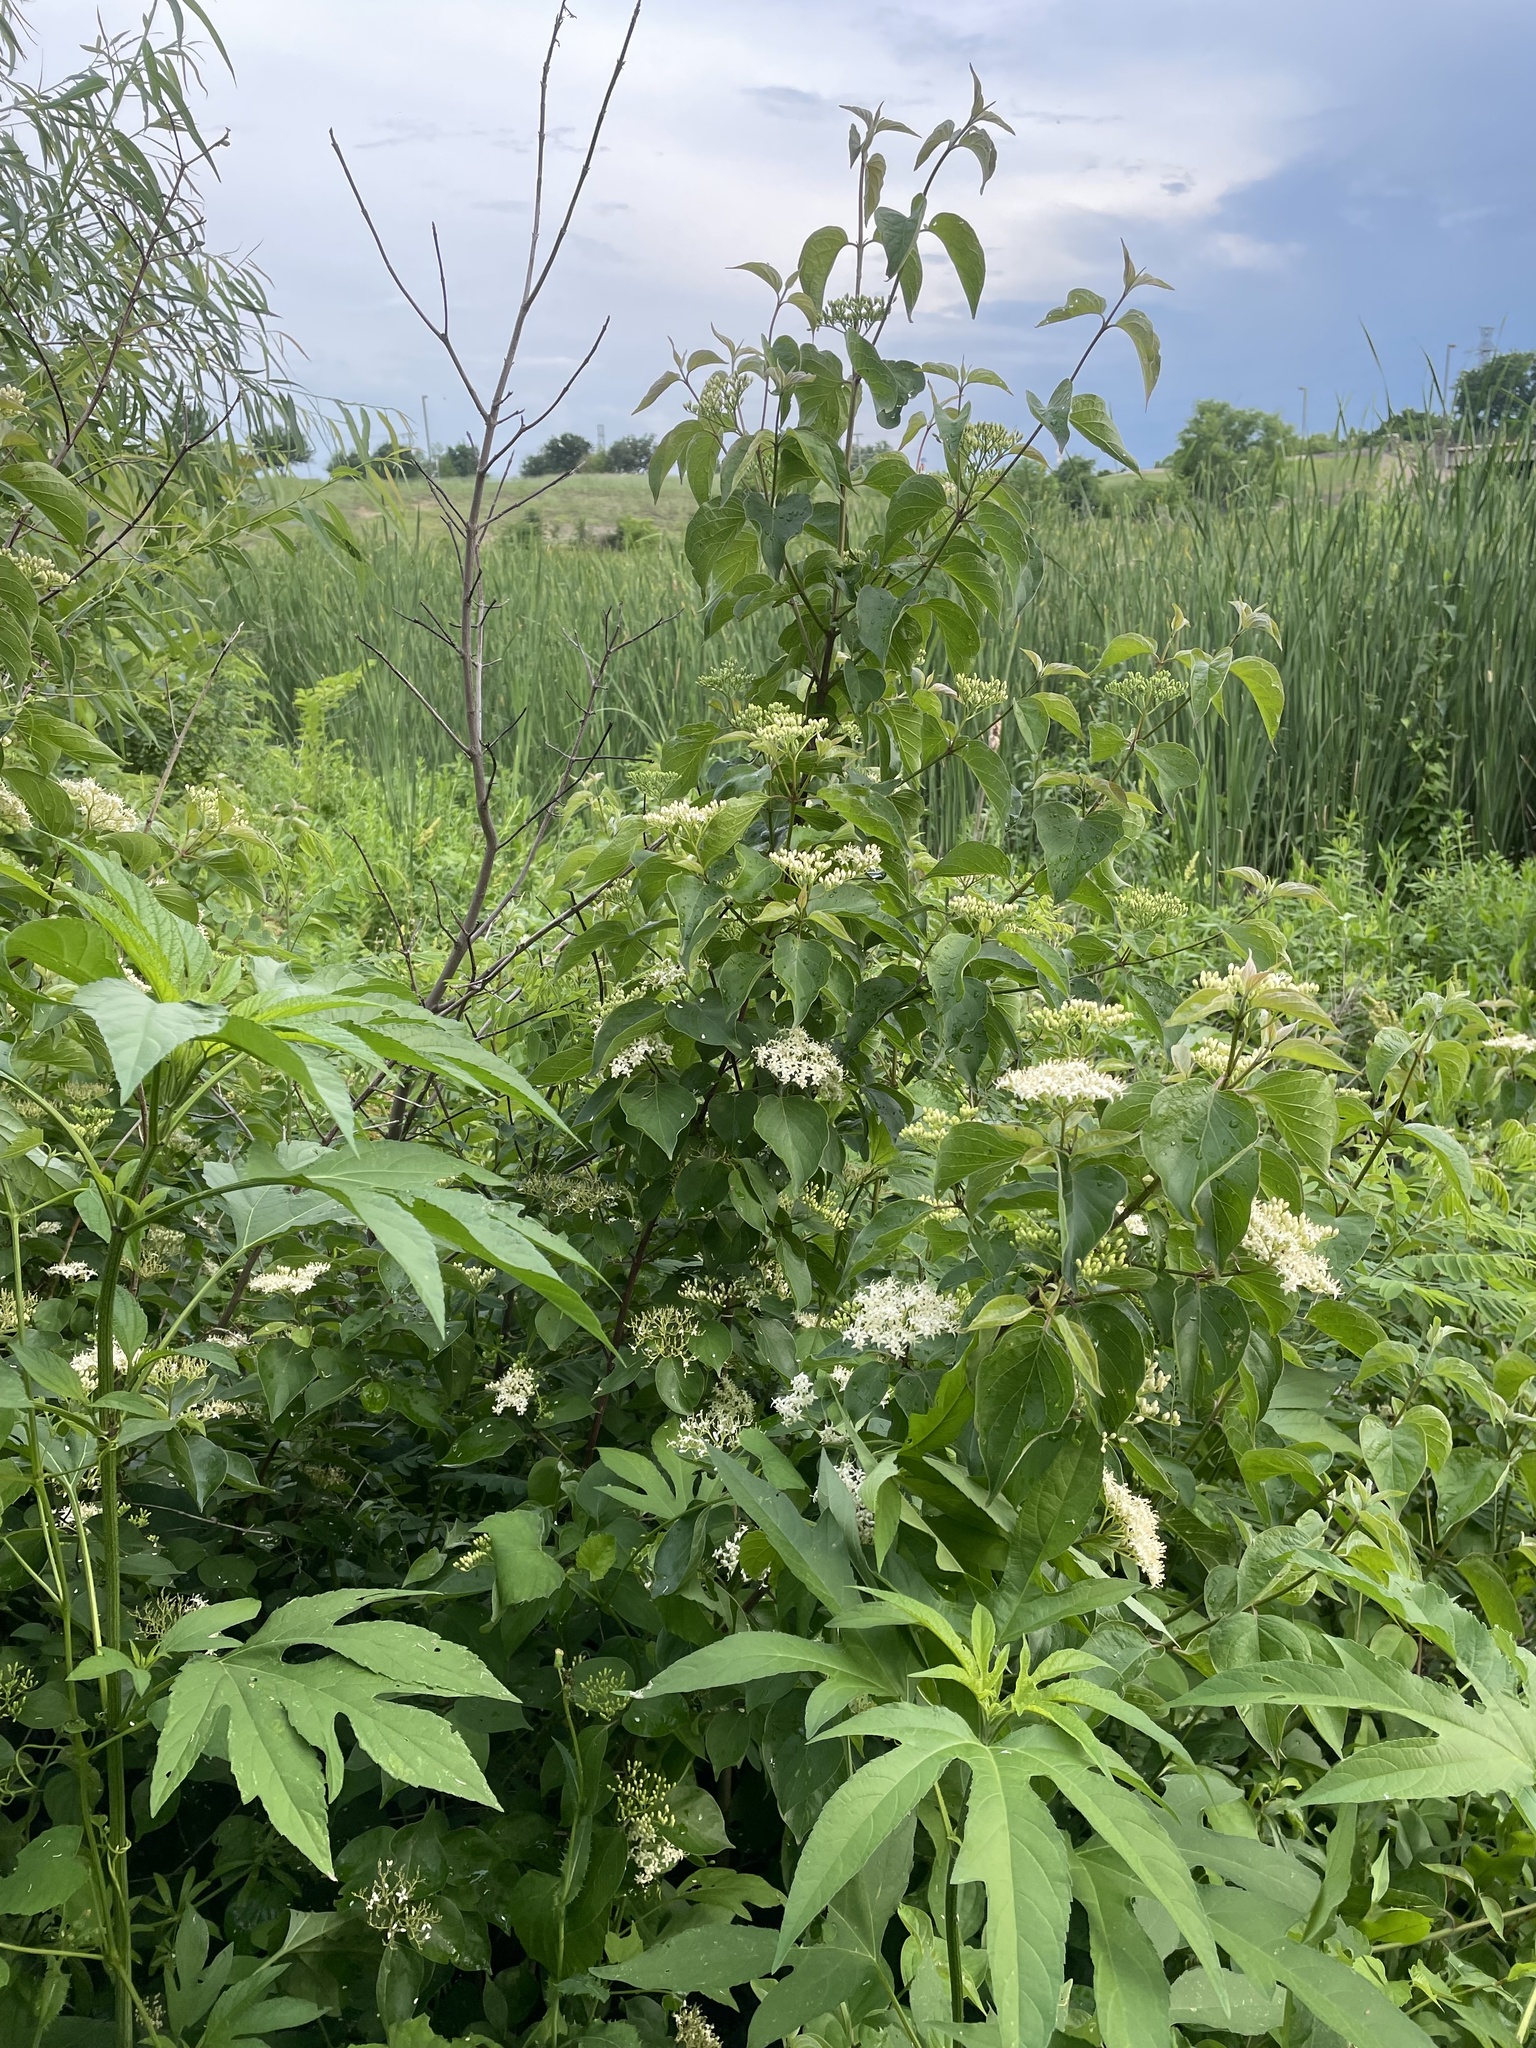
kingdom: Plantae
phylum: Tracheophyta
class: Magnoliopsida
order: Cornales
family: Cornaceae
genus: Cornus
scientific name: Cornus drummondii
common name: Rough-leaf dogwood
